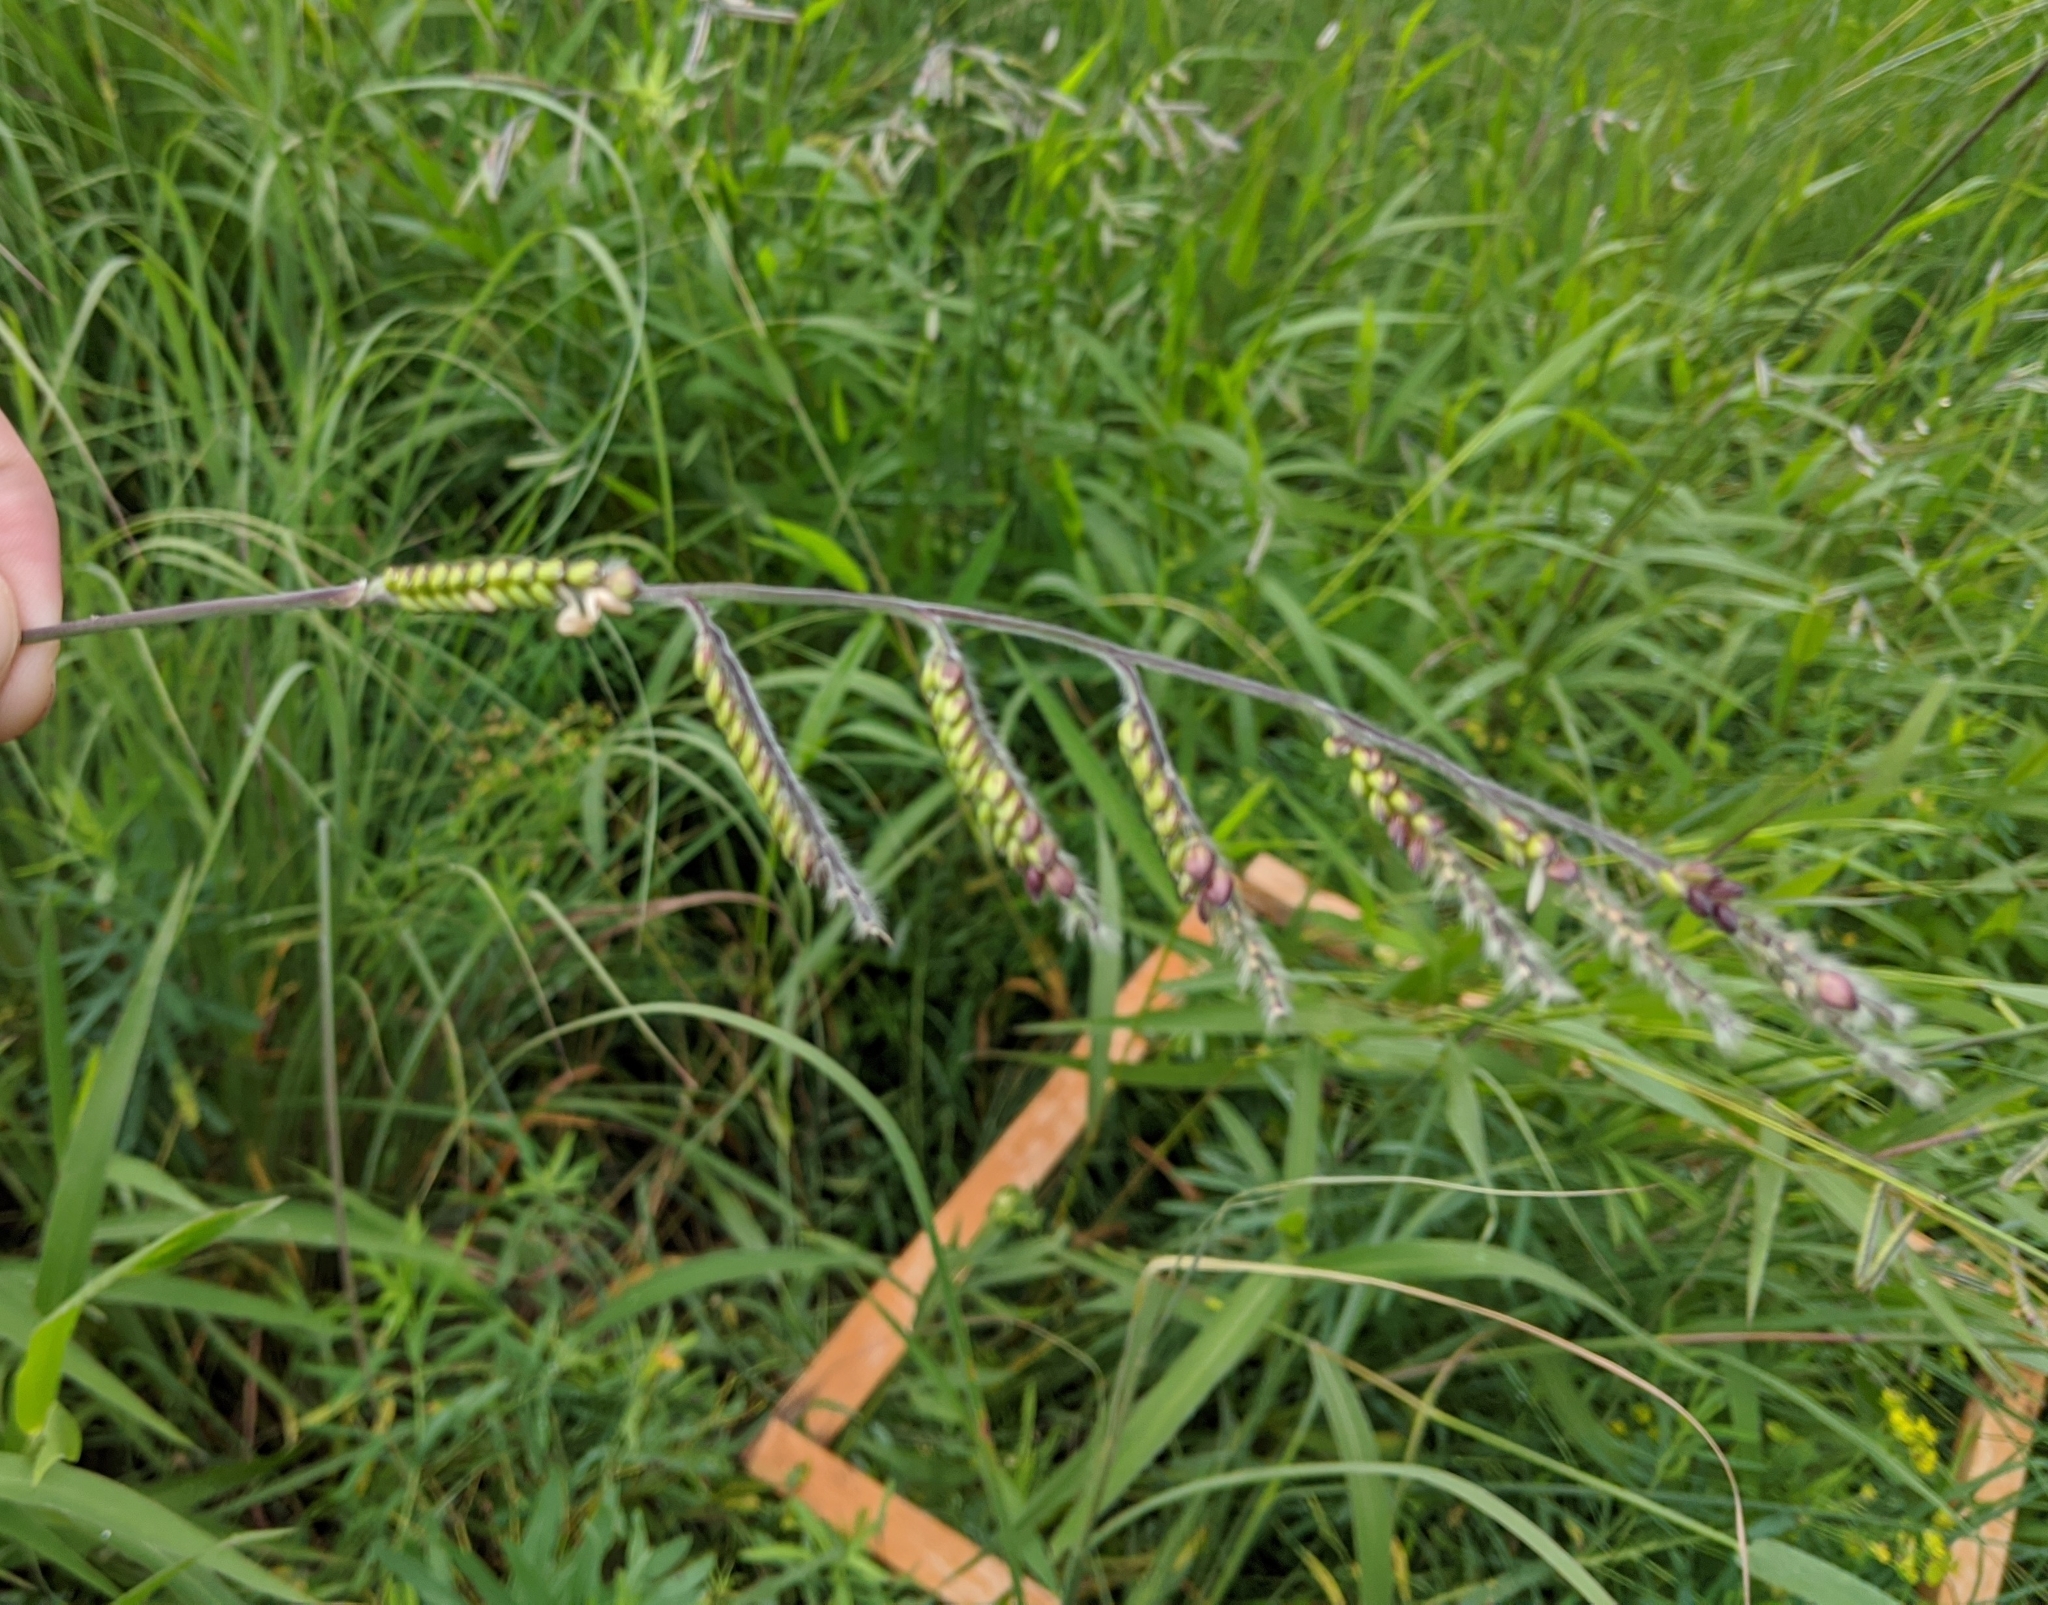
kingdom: Plantae
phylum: Tracheophyta
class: Liliopsida
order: Poales
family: Poaceae
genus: Eriochloa
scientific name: Eriochloa villosa
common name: Hairy cupgrass
